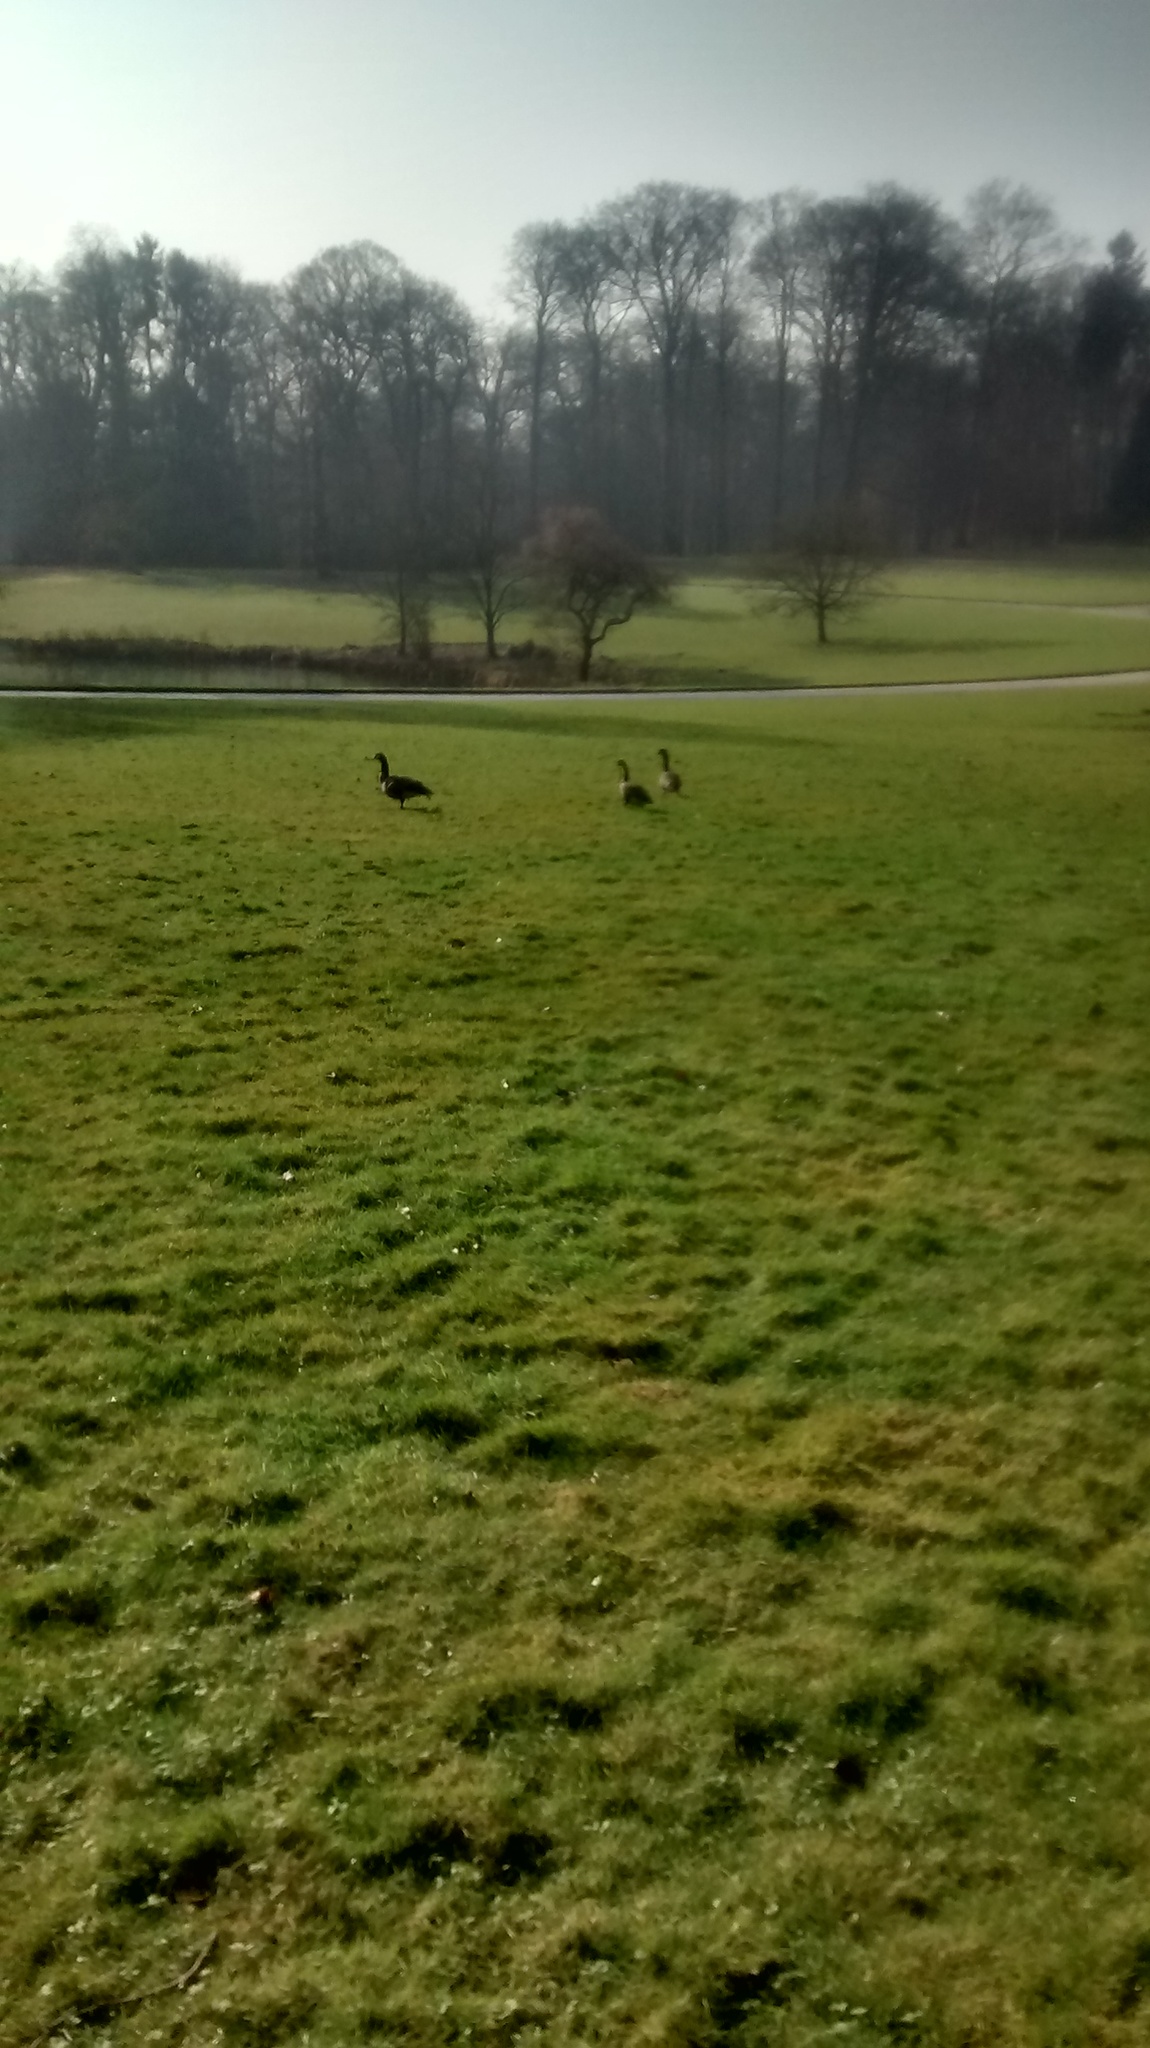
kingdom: Animalia
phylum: Chordata
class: Aves
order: Anseriformes
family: Anatidae
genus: Branta
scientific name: Branta canadensis
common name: Canada goose
